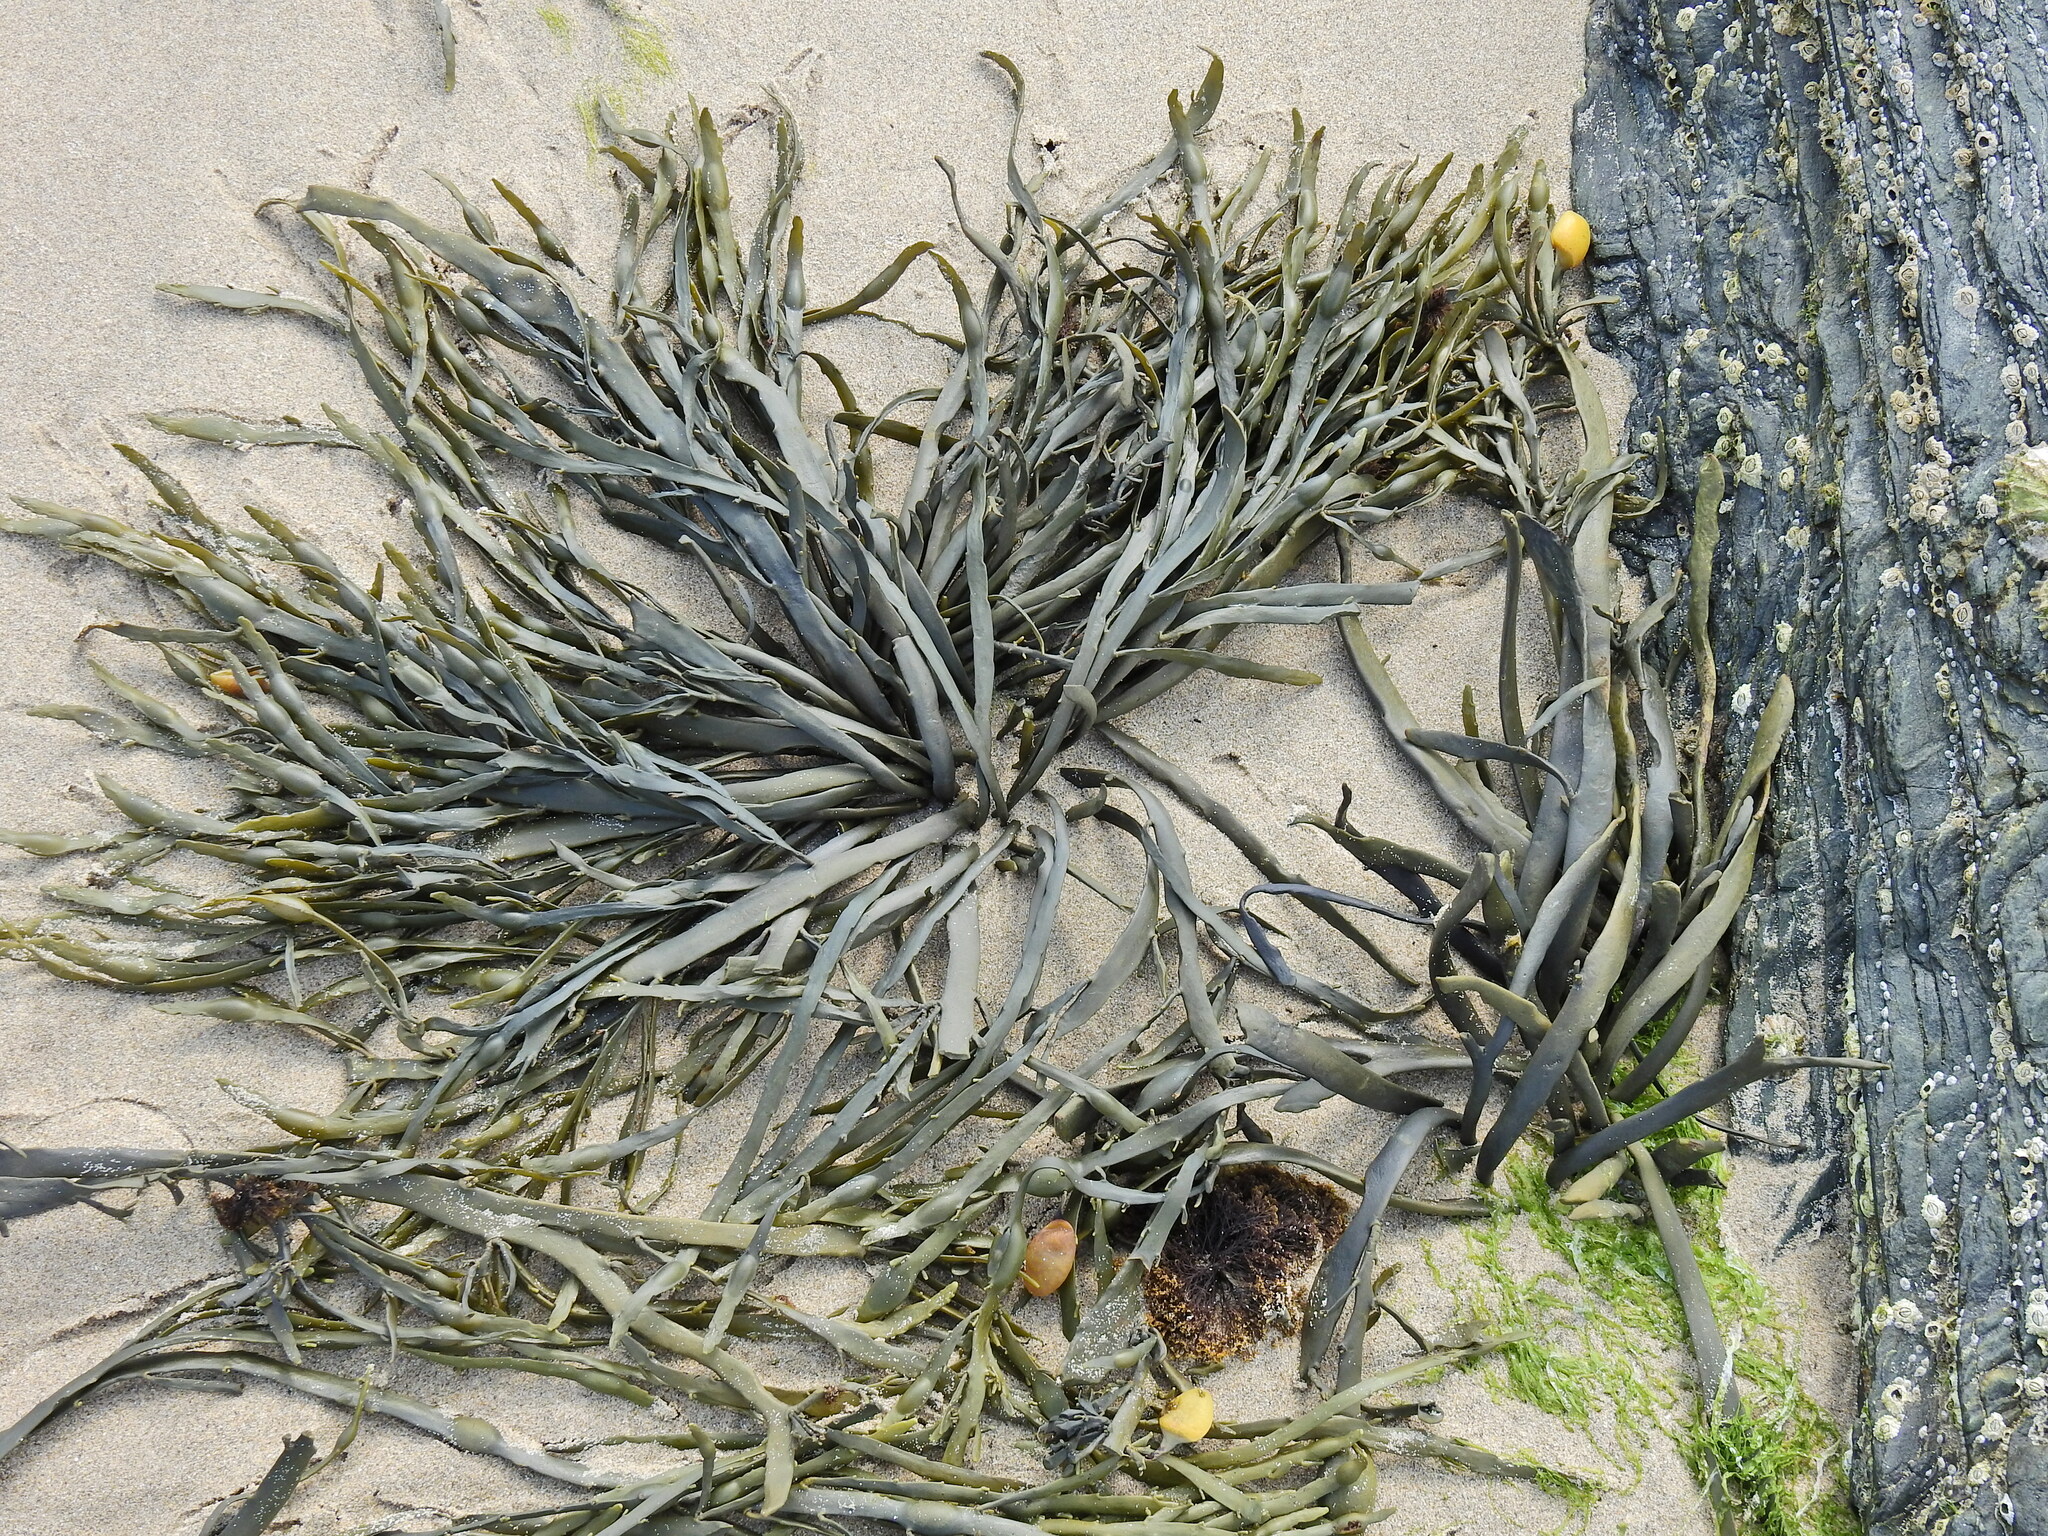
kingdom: Chromista
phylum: Ochrophyta
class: Phaeophyceae
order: Fucales
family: Fucaceae
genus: Ascophyllum
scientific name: Ascophyllum nodosum
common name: Knotted wrack
